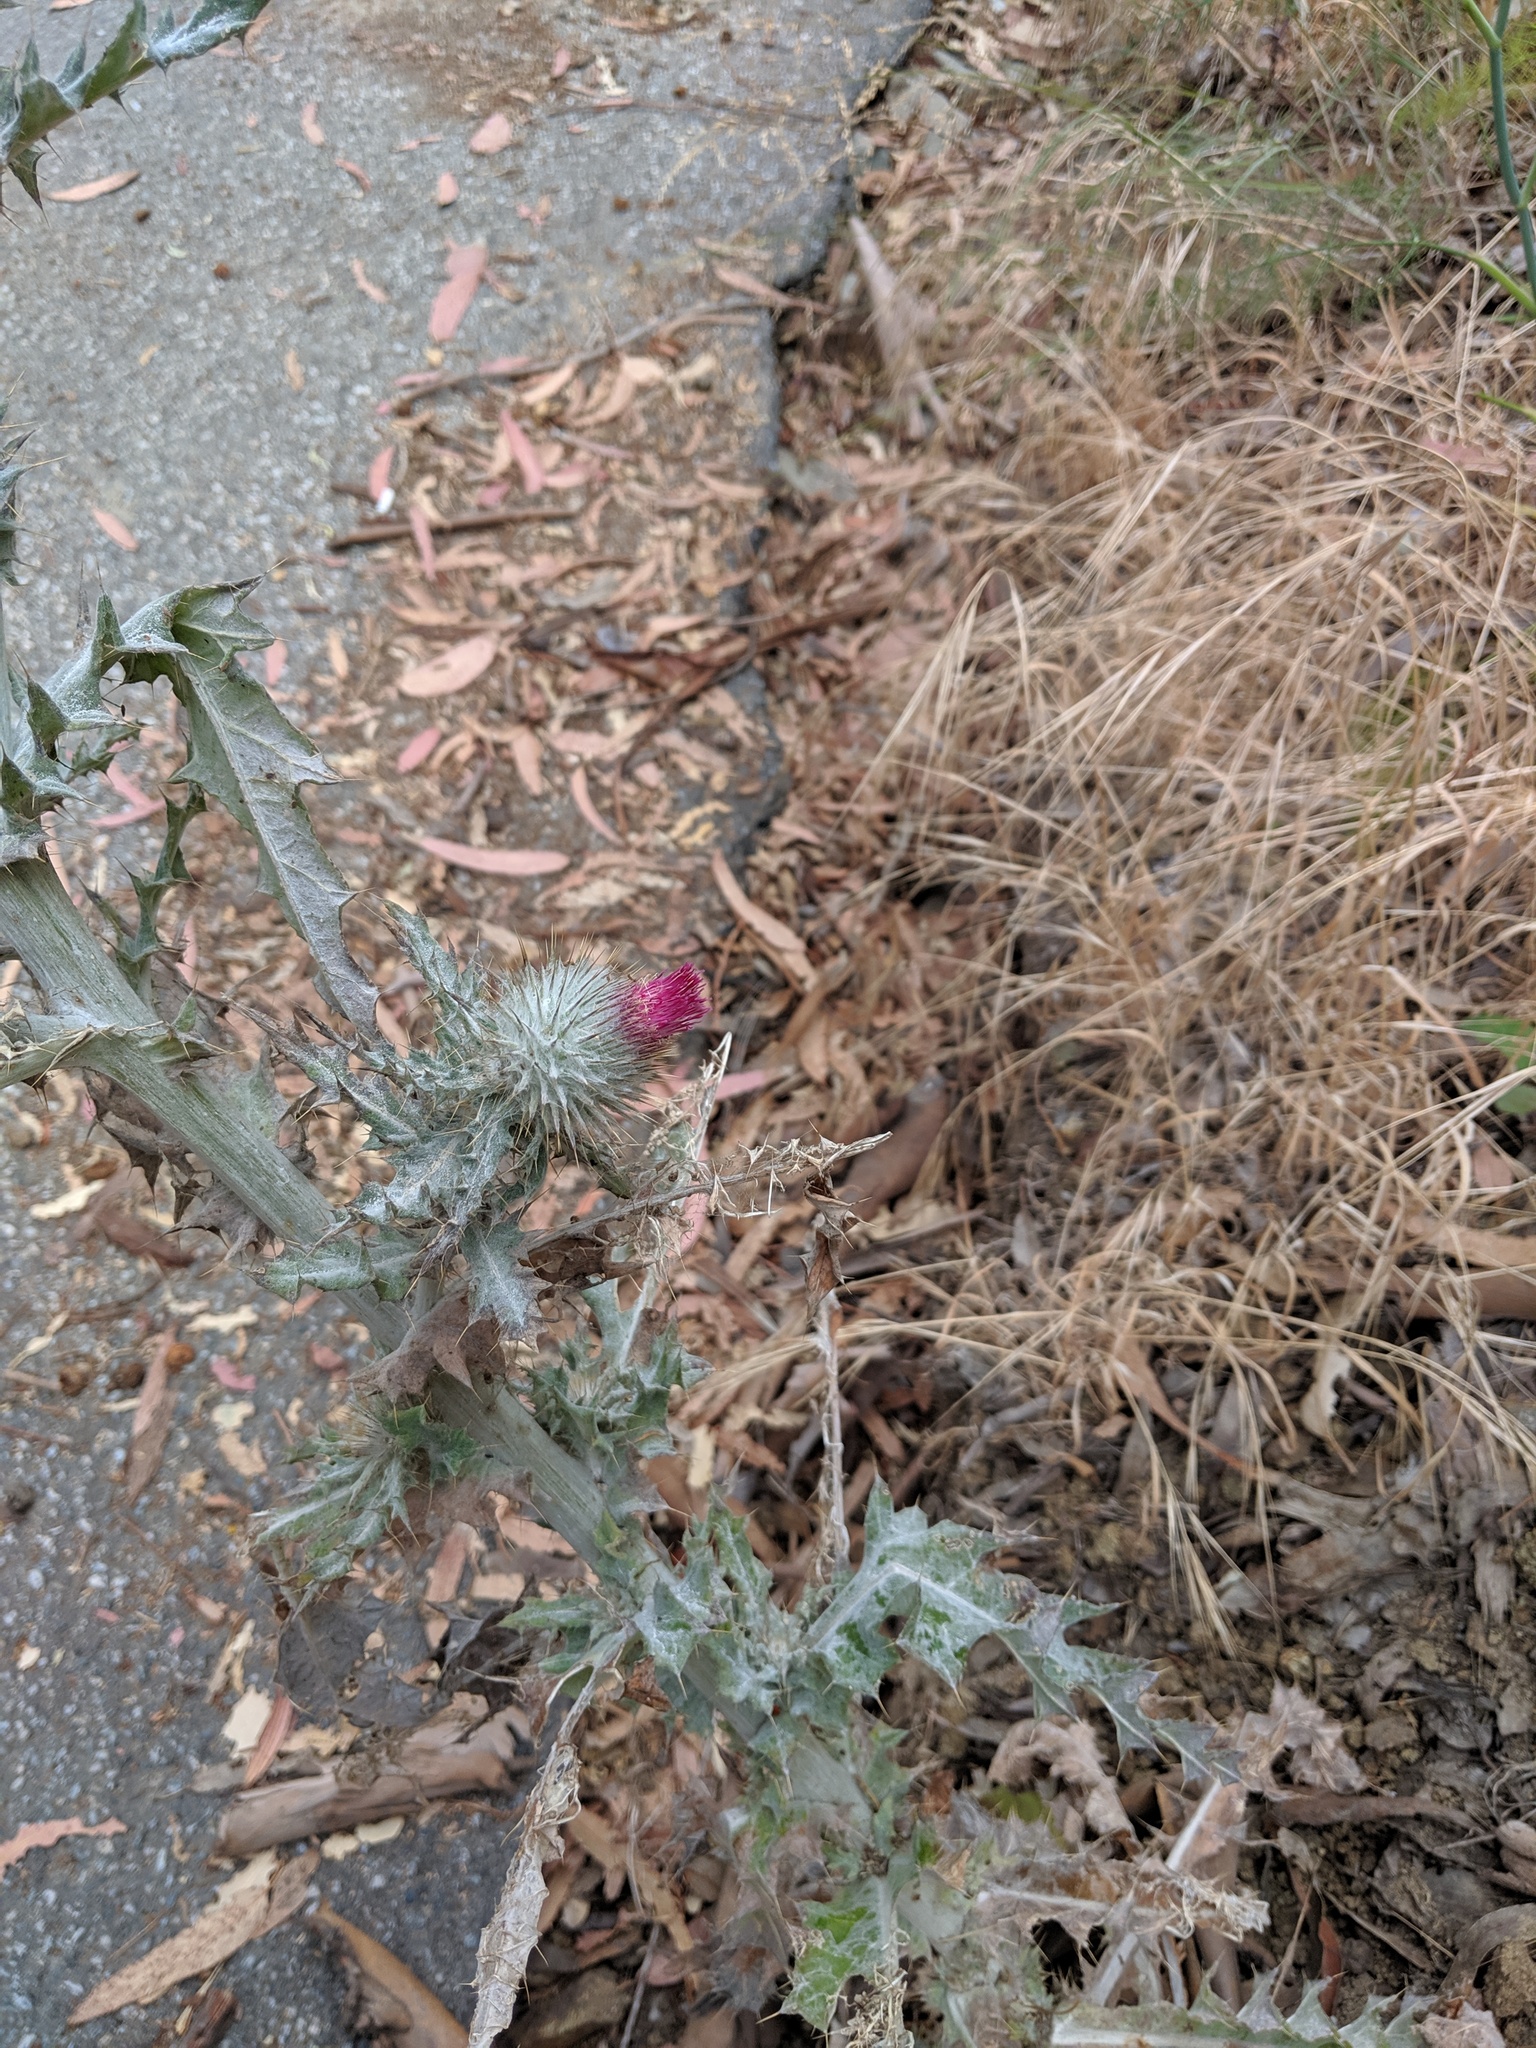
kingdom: Plantae
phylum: Tracheophyta
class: Magnoliopsida
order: Asterales
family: Asteraceae
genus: Cirsium
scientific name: Cirsium occidentale
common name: Western thistle
